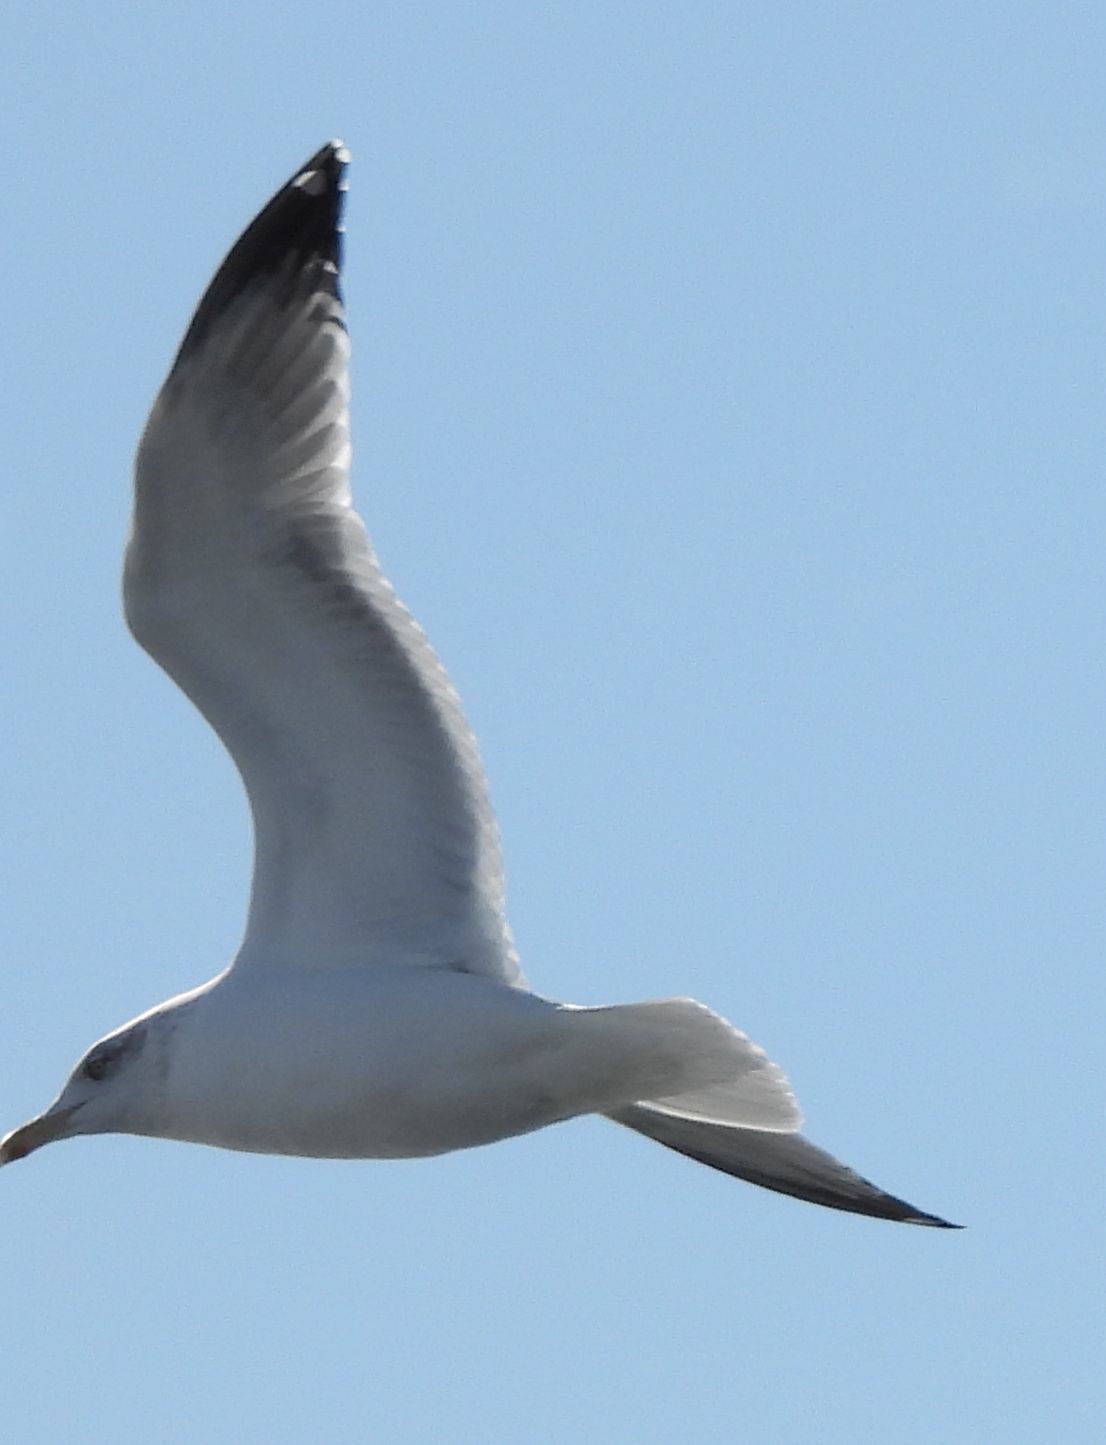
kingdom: Animalia
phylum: Chordata
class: Aves
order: Charadriiformes
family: Laridae
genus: Larus
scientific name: Larus argentatus
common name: Herring gull
